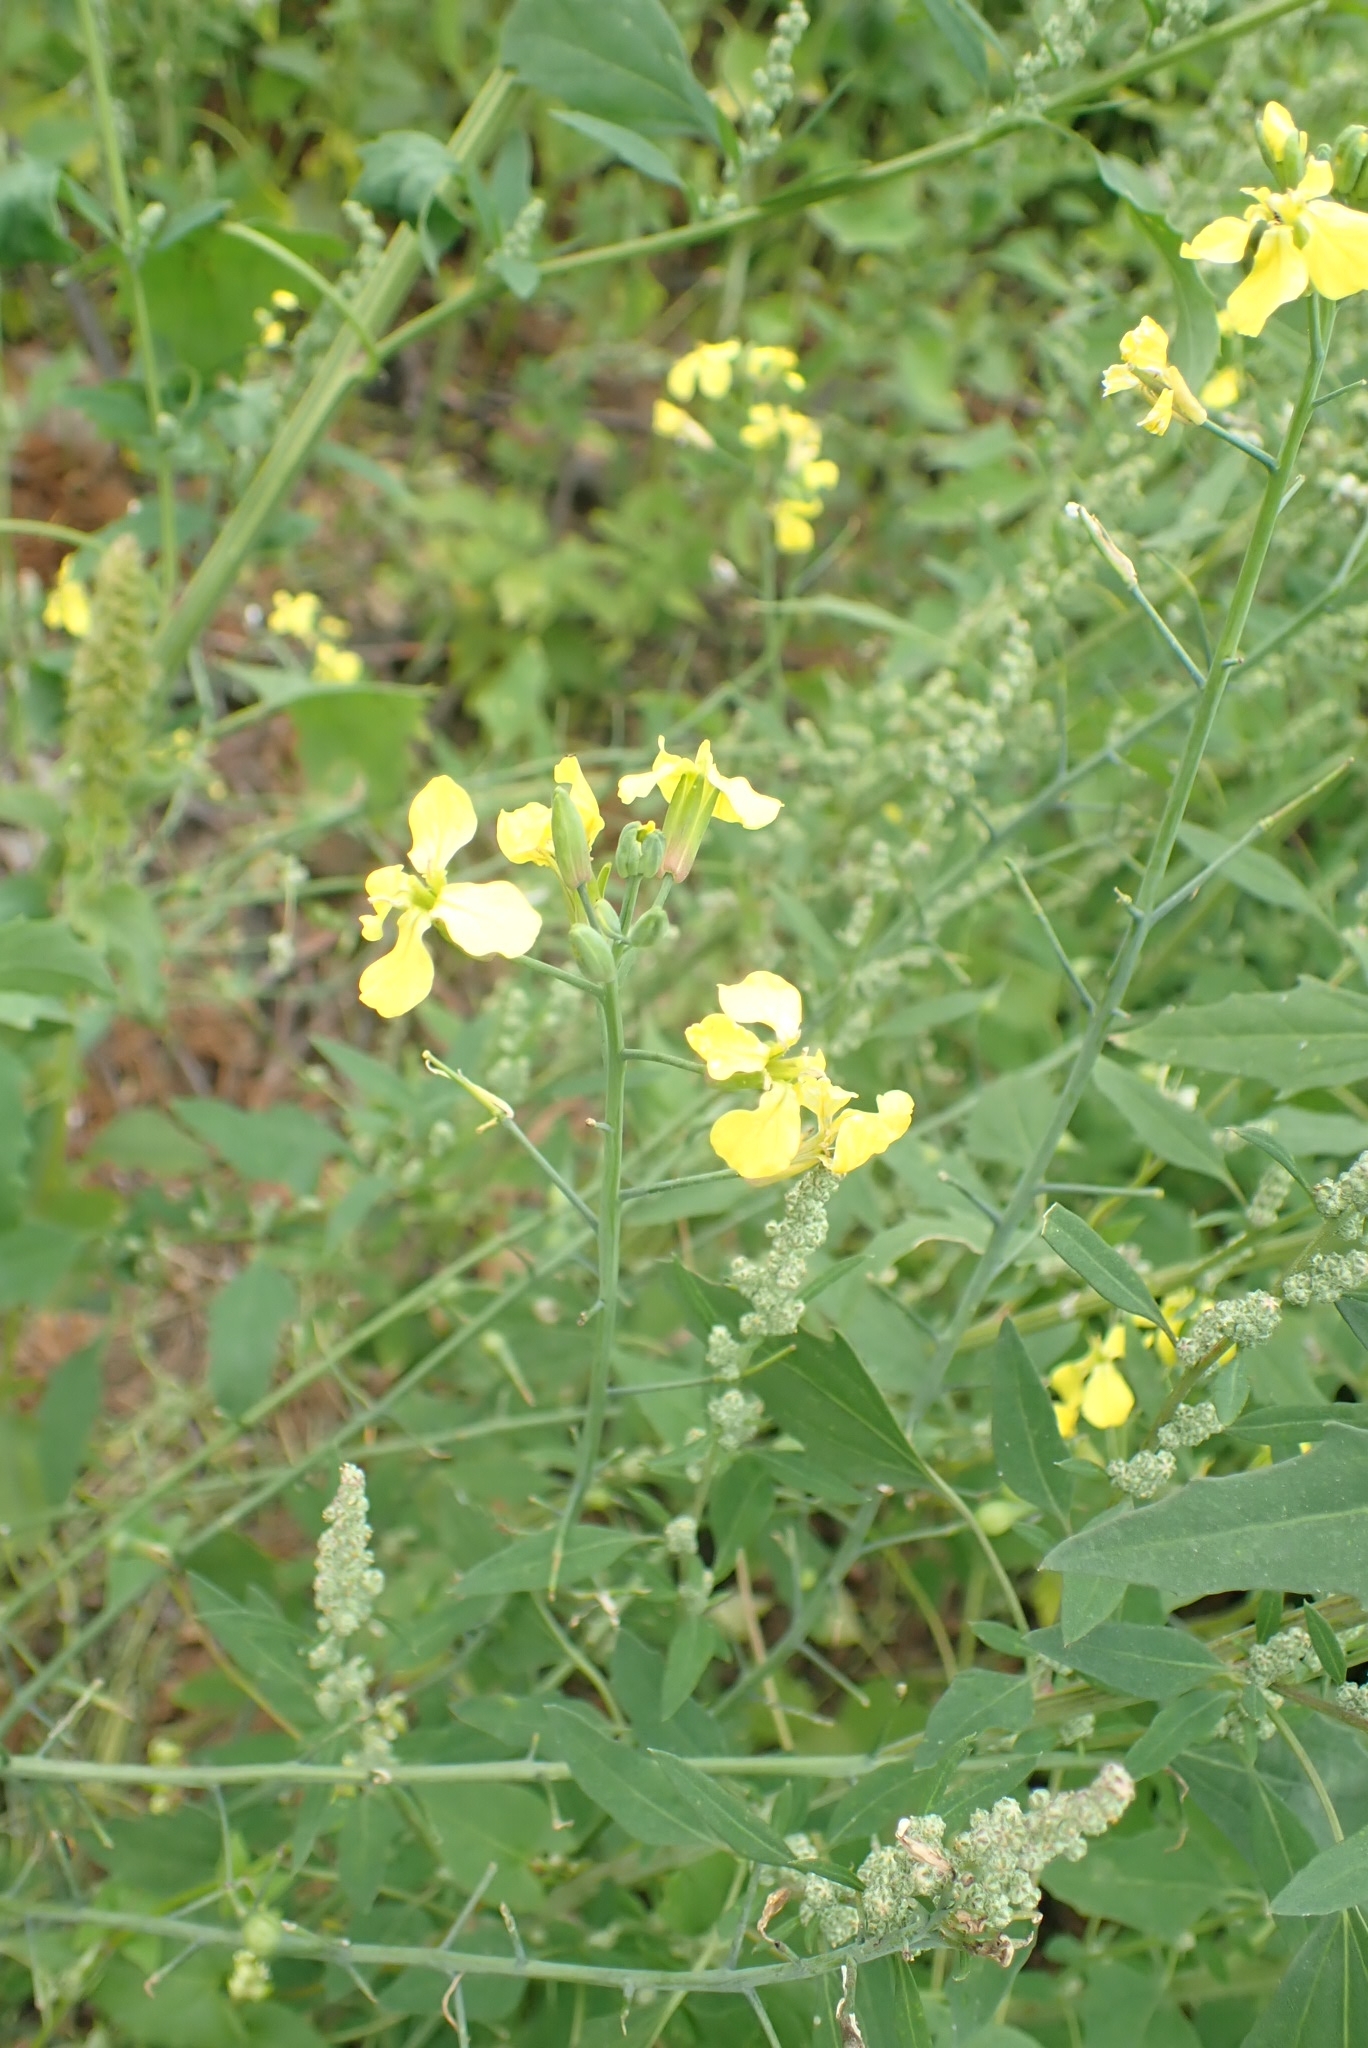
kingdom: Plantae
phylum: Tracheophyta
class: Magnoliopsida
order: Brassicales
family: Brassicaceae
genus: Raphanus
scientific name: Raphanus raphanistrum
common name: Wild radish
